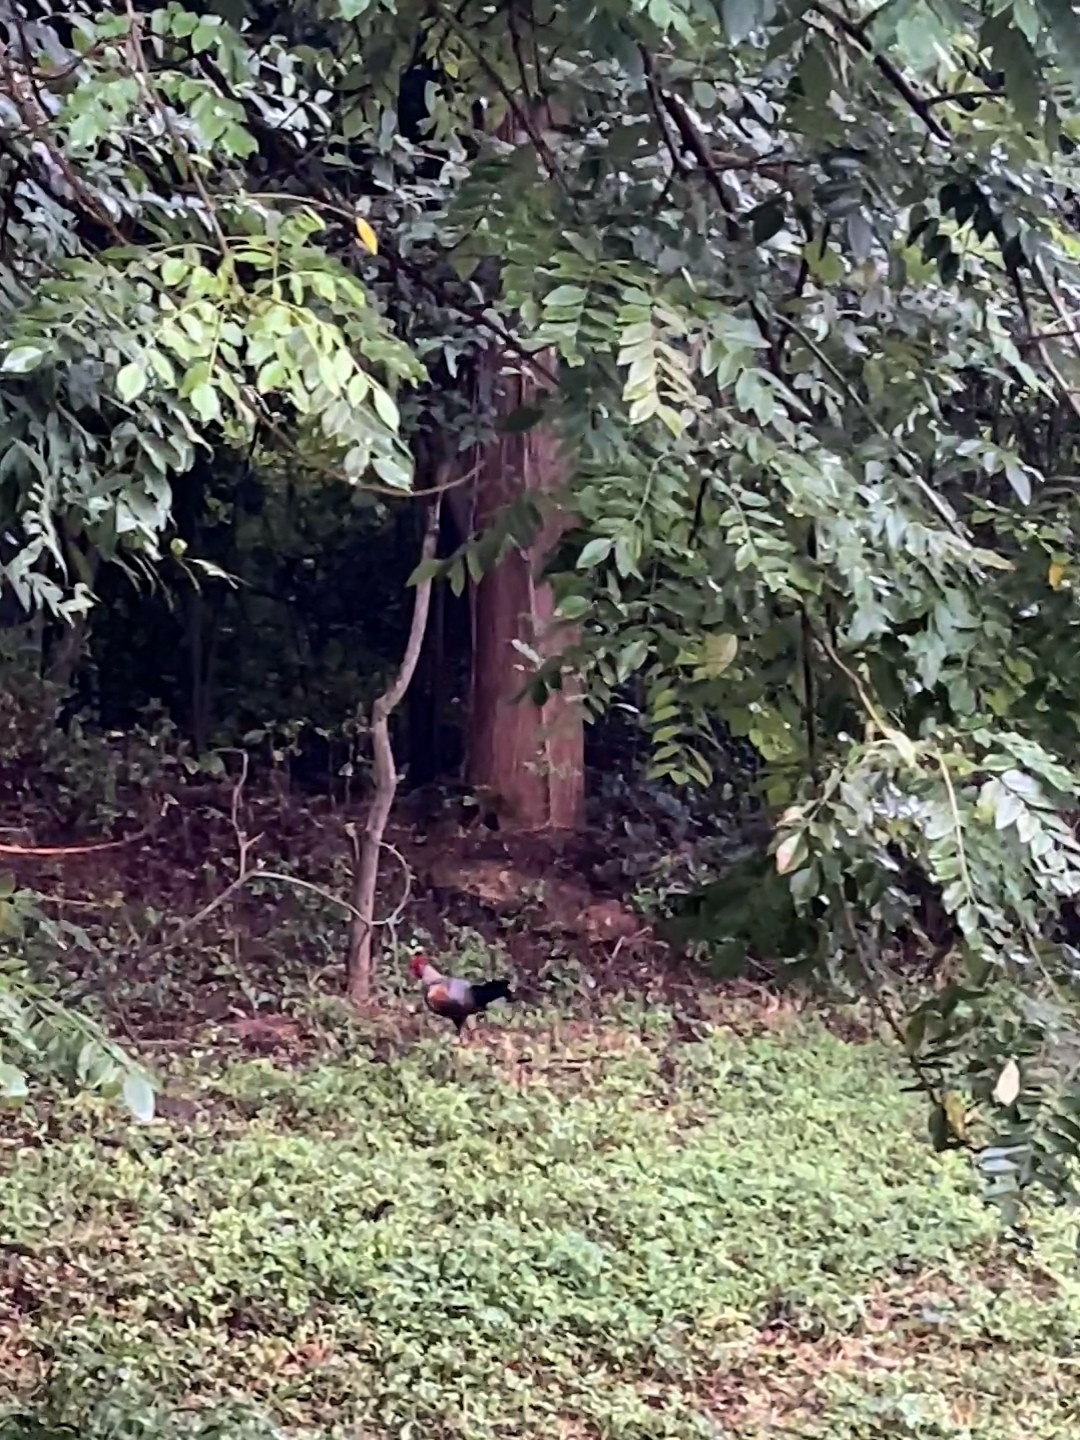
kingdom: Animalia
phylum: Chordata
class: Aves
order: Galliformes
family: Phasianidae
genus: Gallus
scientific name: Gallus sonneratii
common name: Grey junglefowl
